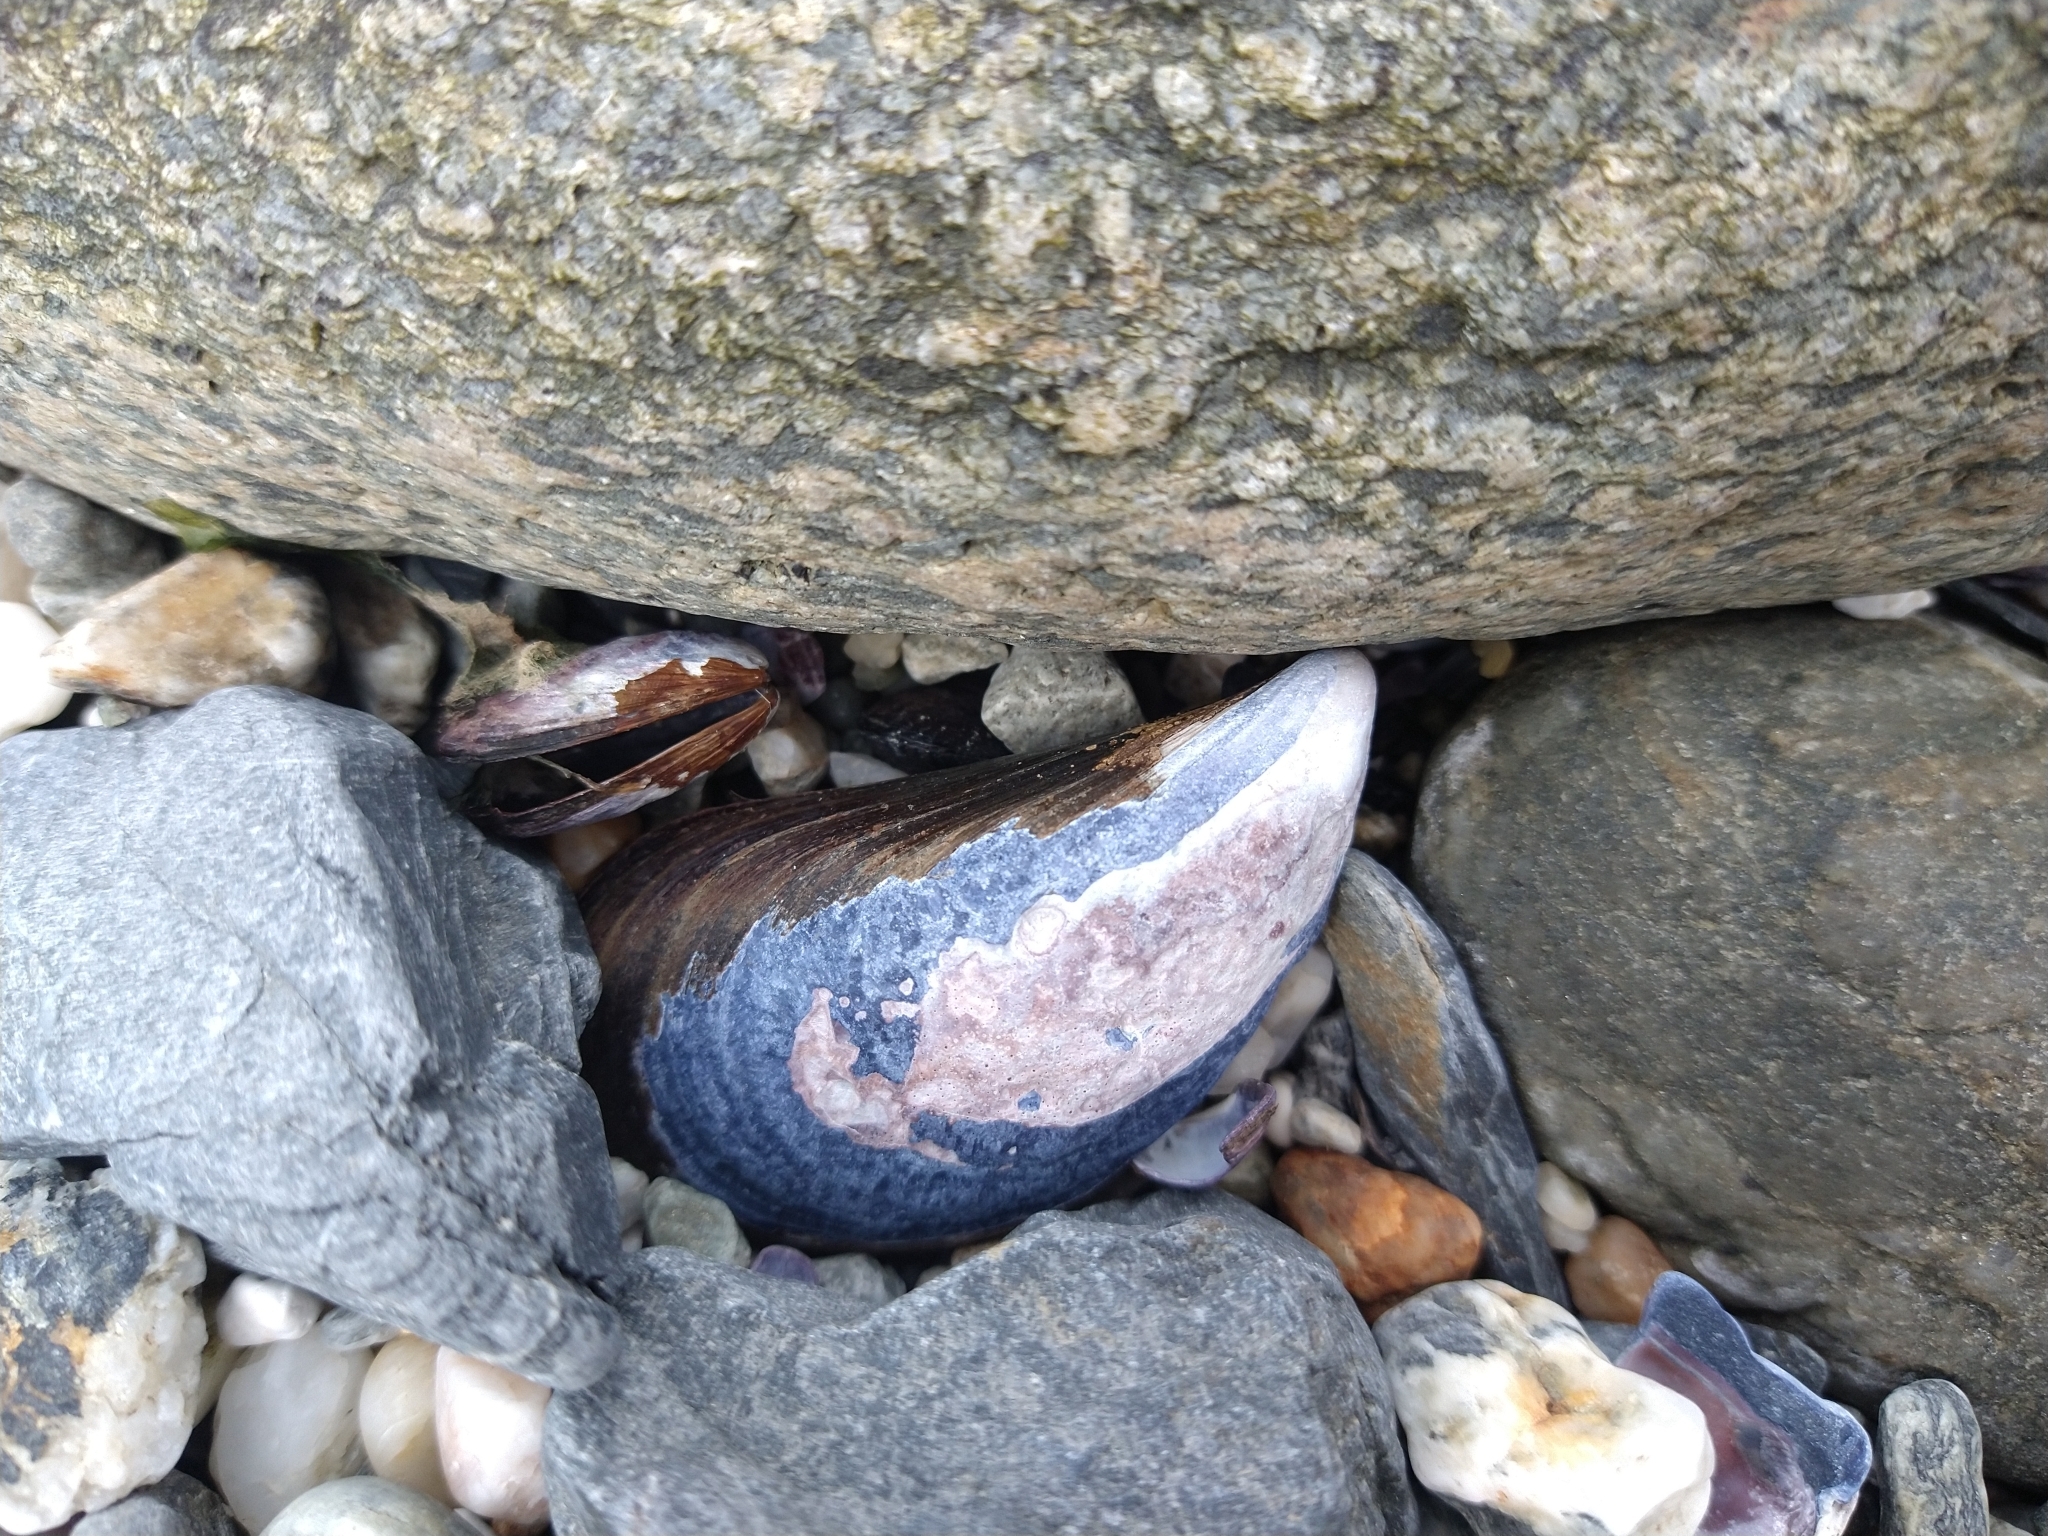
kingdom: Animalia
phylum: Mollusca
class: Bivalvia
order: Mytilida
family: Mytilidae
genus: Mytilus
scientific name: Mytilus chilensis
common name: Chilean mussel
